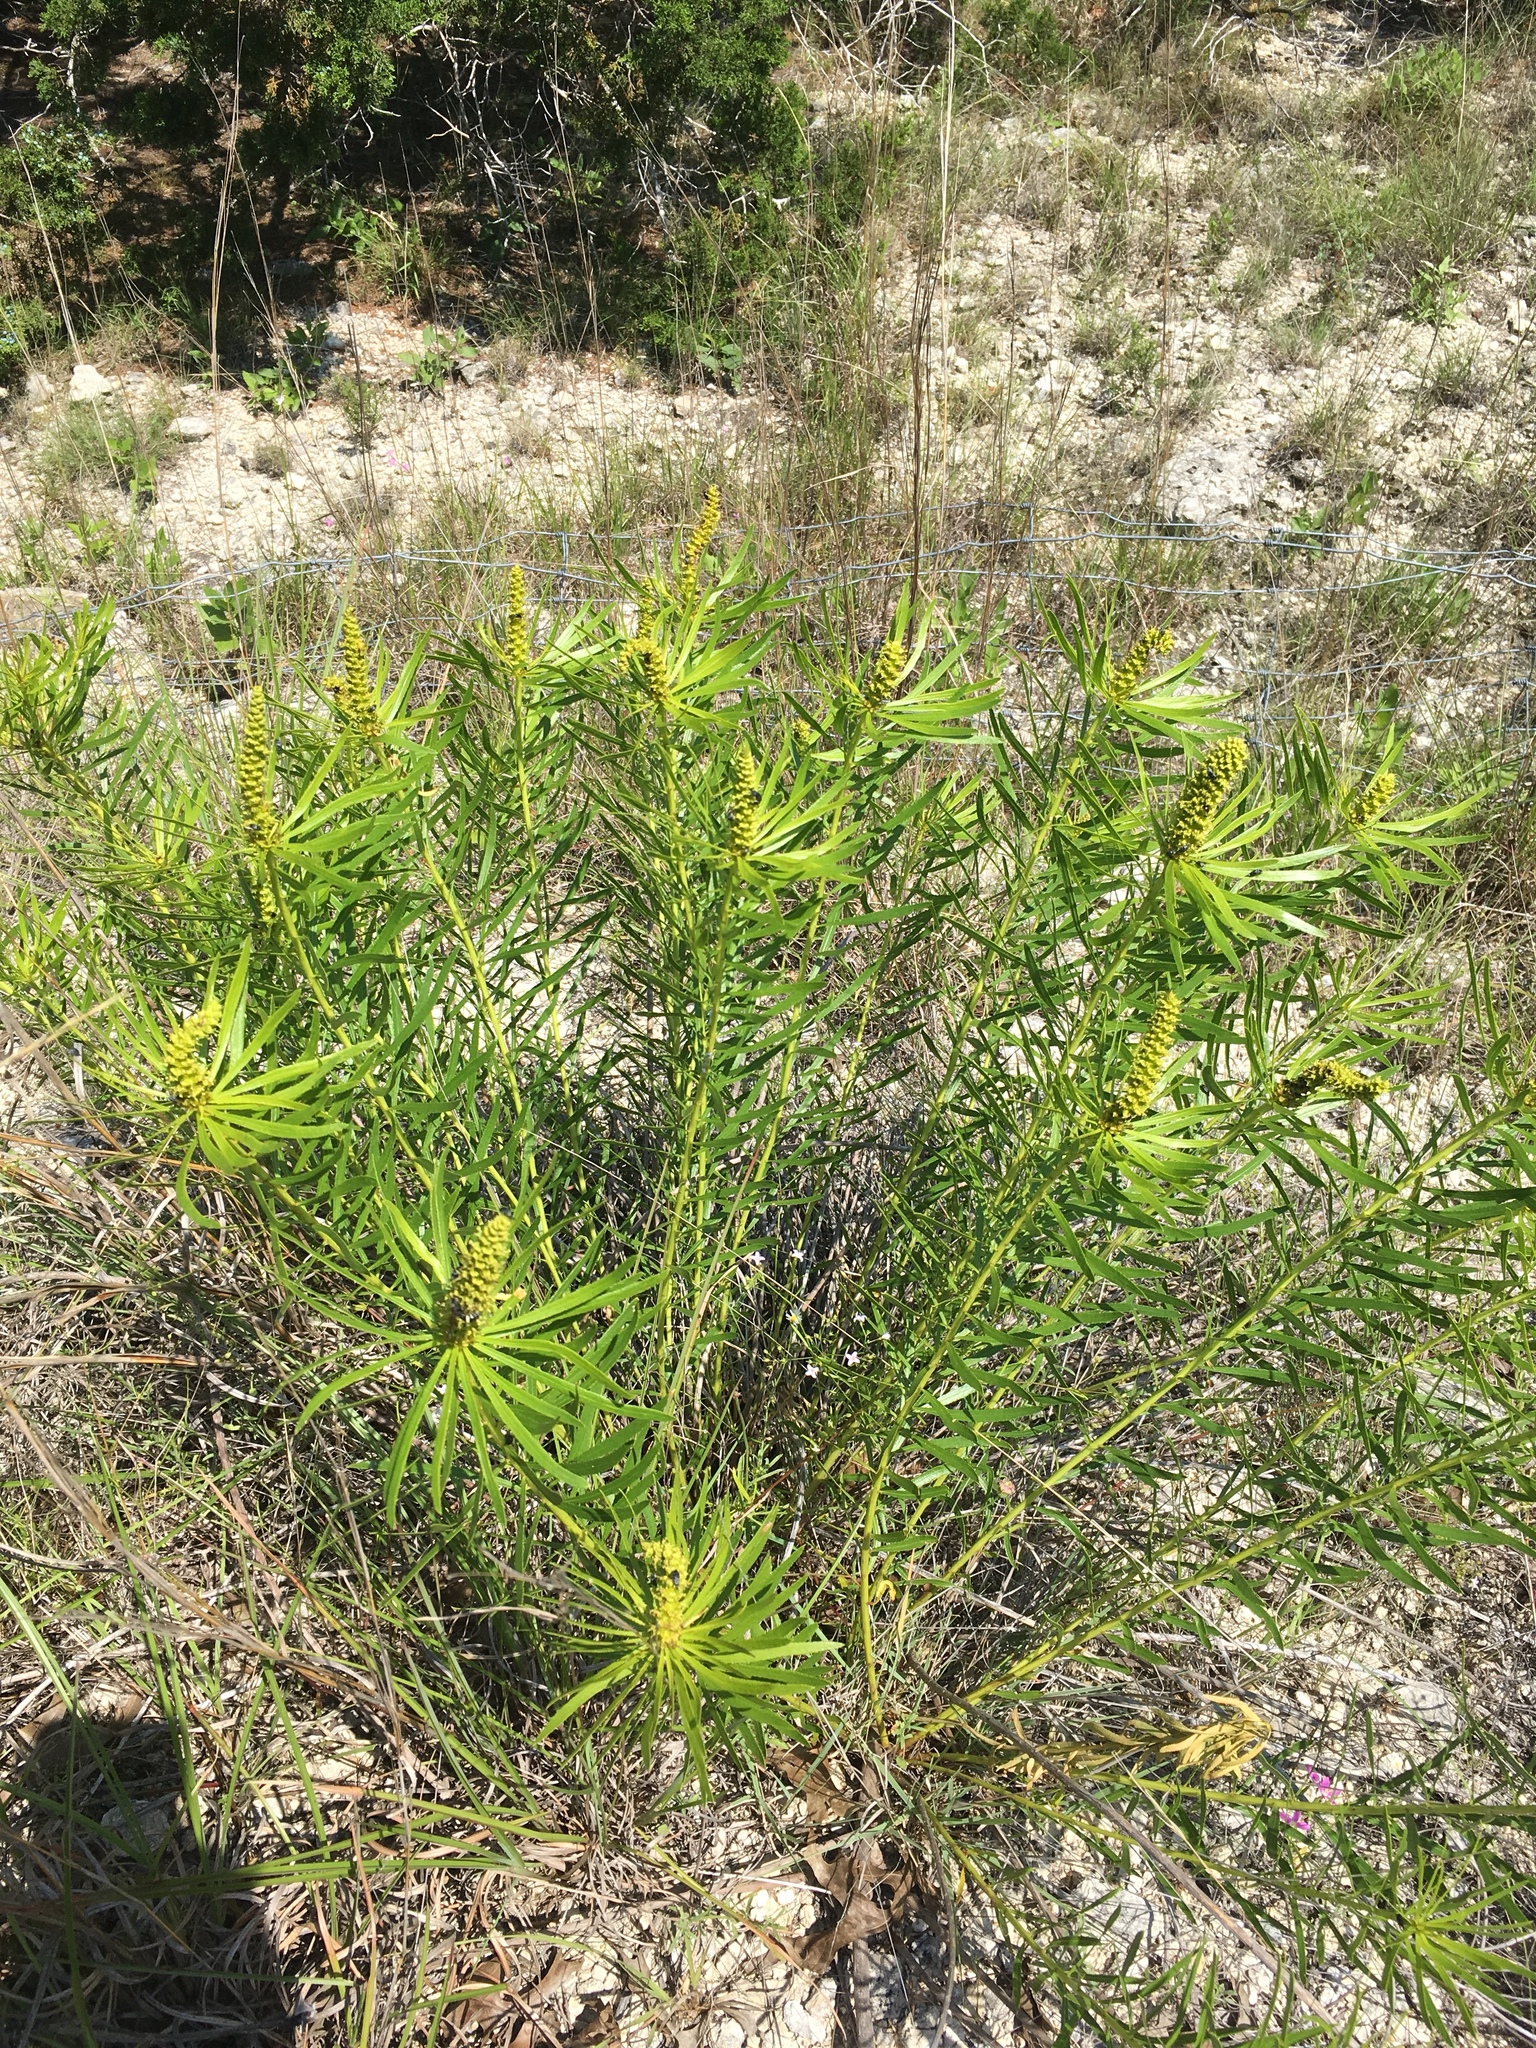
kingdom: Plantae
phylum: Tracheophyta
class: Magnoliopsida
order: Malpighiales
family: Euphorbiaceae
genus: Stillingia
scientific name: Stillingia texana
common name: Texas stillingia
